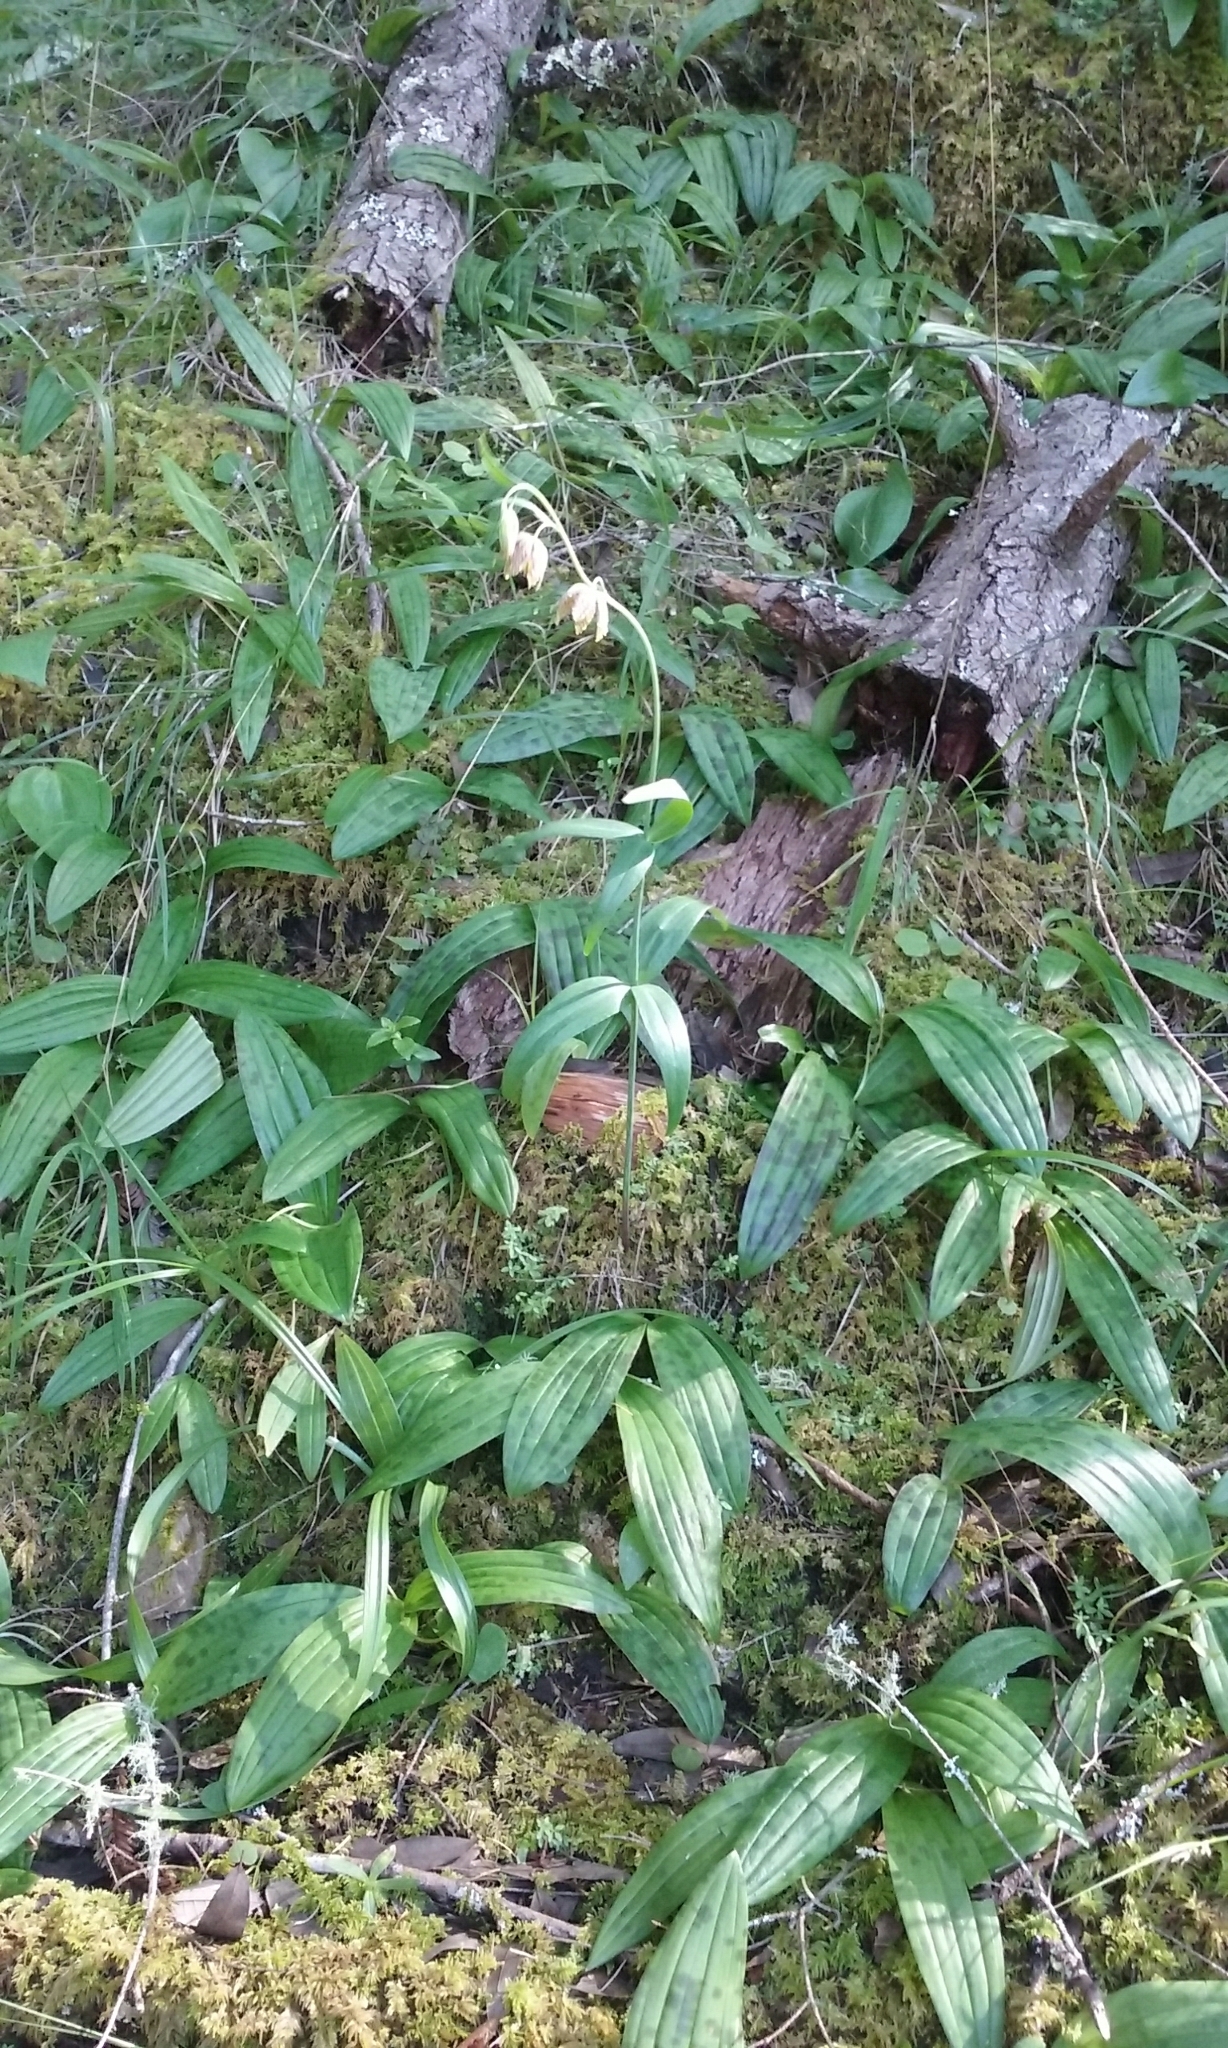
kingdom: Plantae
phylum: Tracheophyta
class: Liliopsida
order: Liliales
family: Liliaceae
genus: Fritillaria
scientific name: Fritillaria affinis
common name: Ojai fritillary
